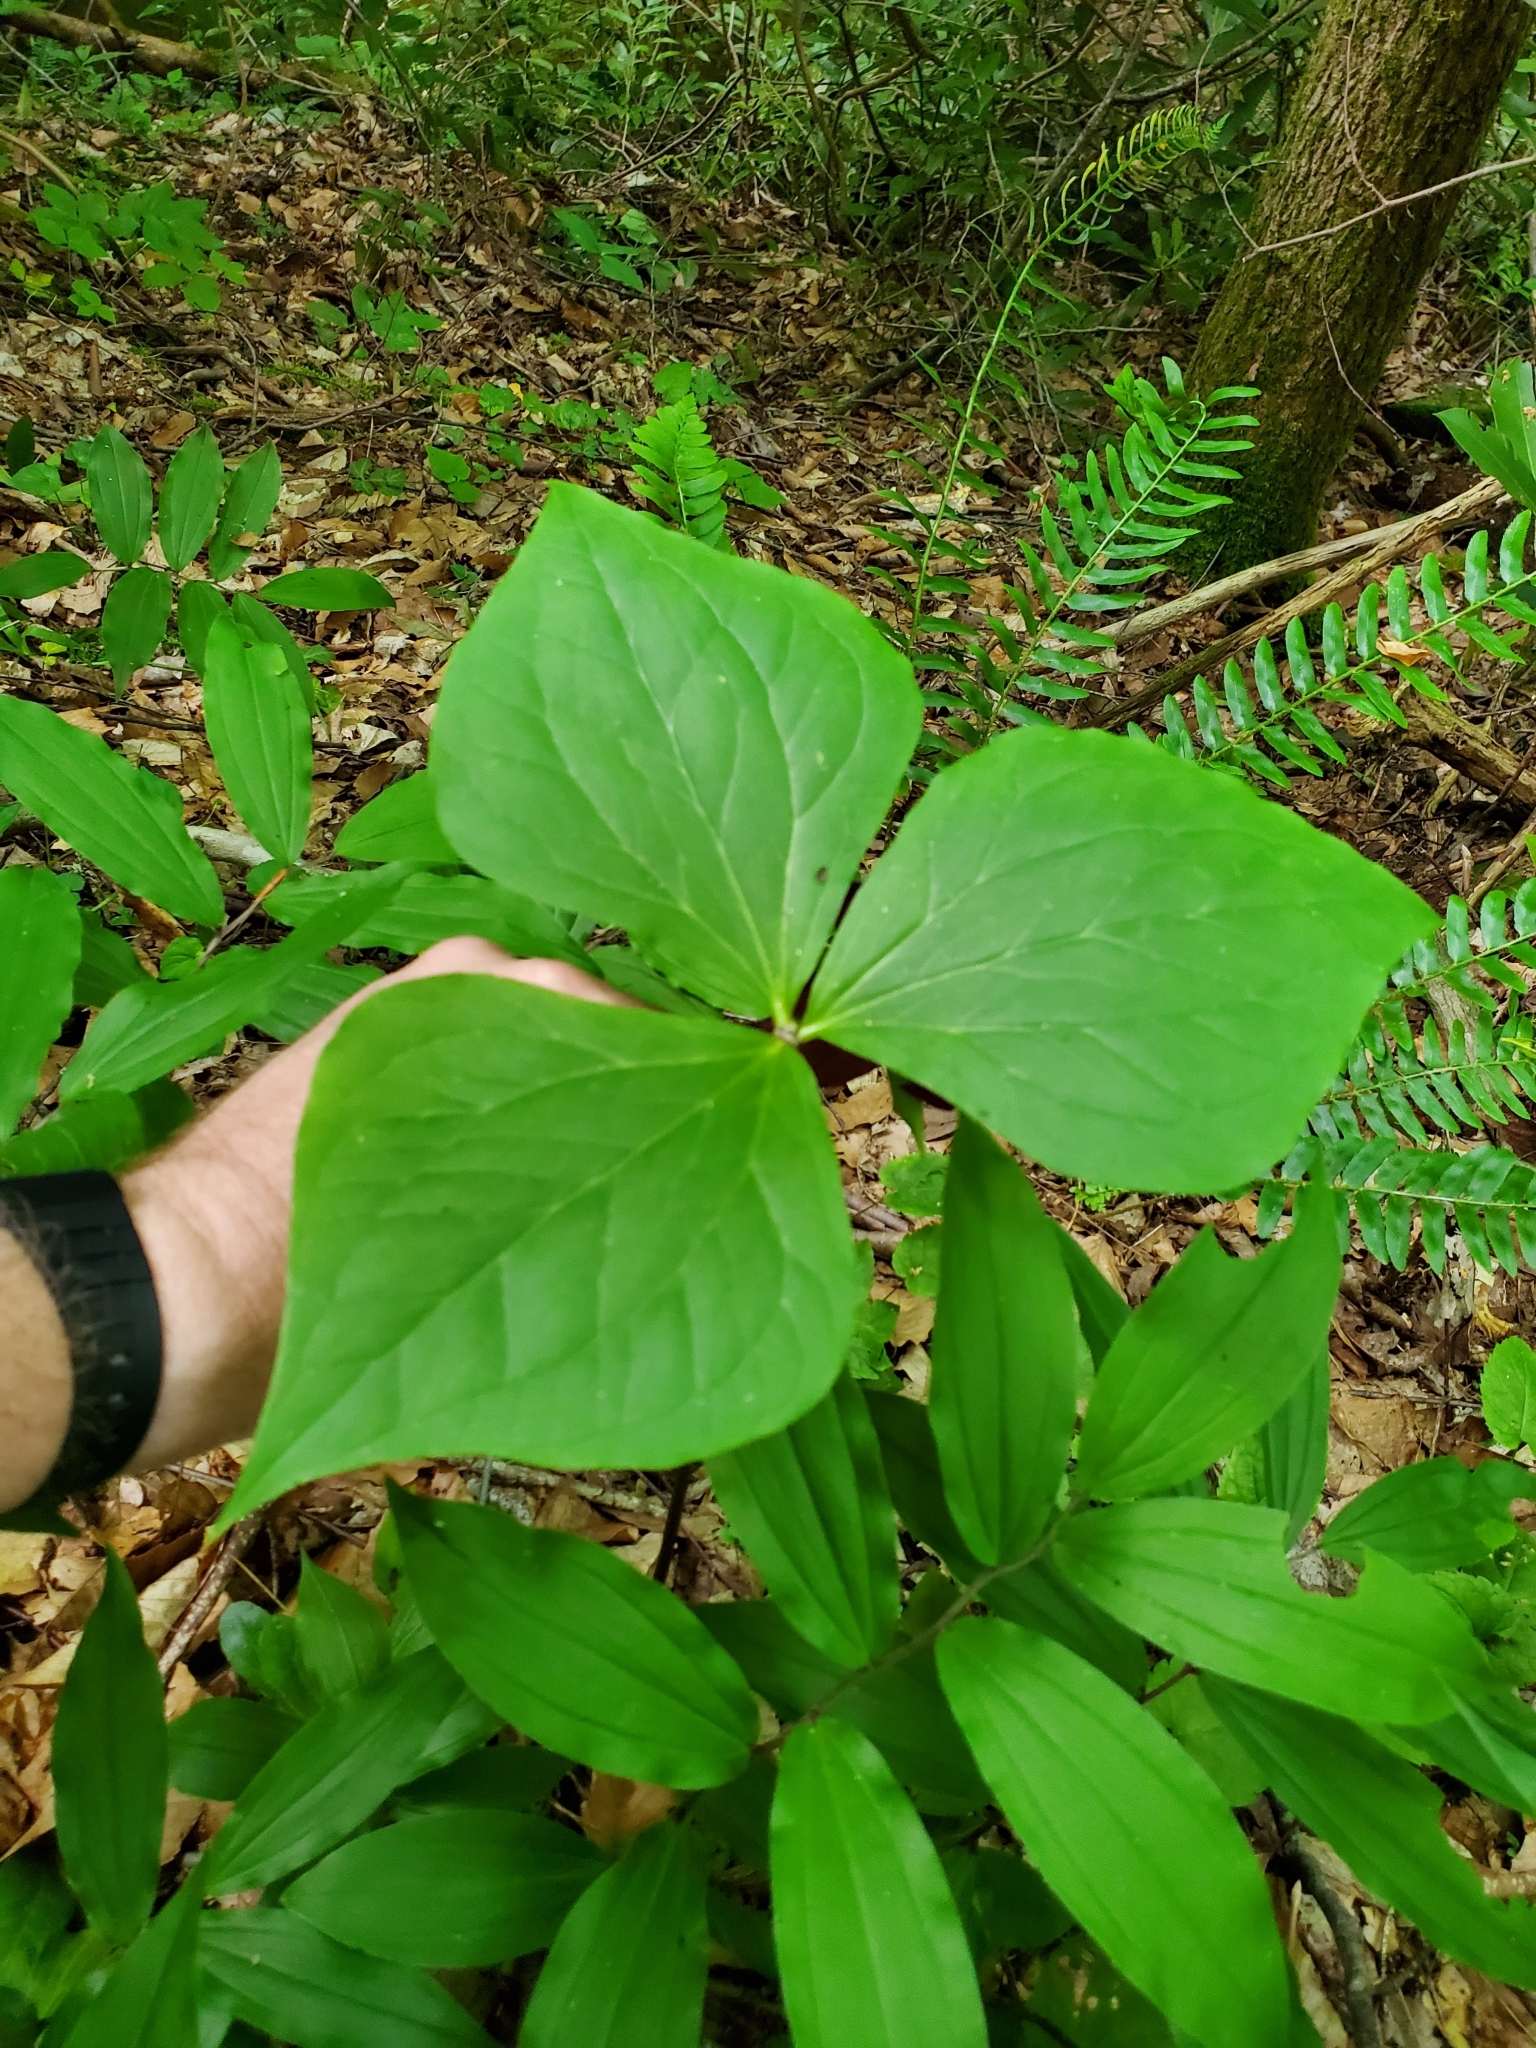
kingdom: Plantae
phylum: Tracheophyta
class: Liliopsida
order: Liliales
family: Melanthiaceae
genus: Trillium
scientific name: Trillium vaseyi
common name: Sweet trillium
